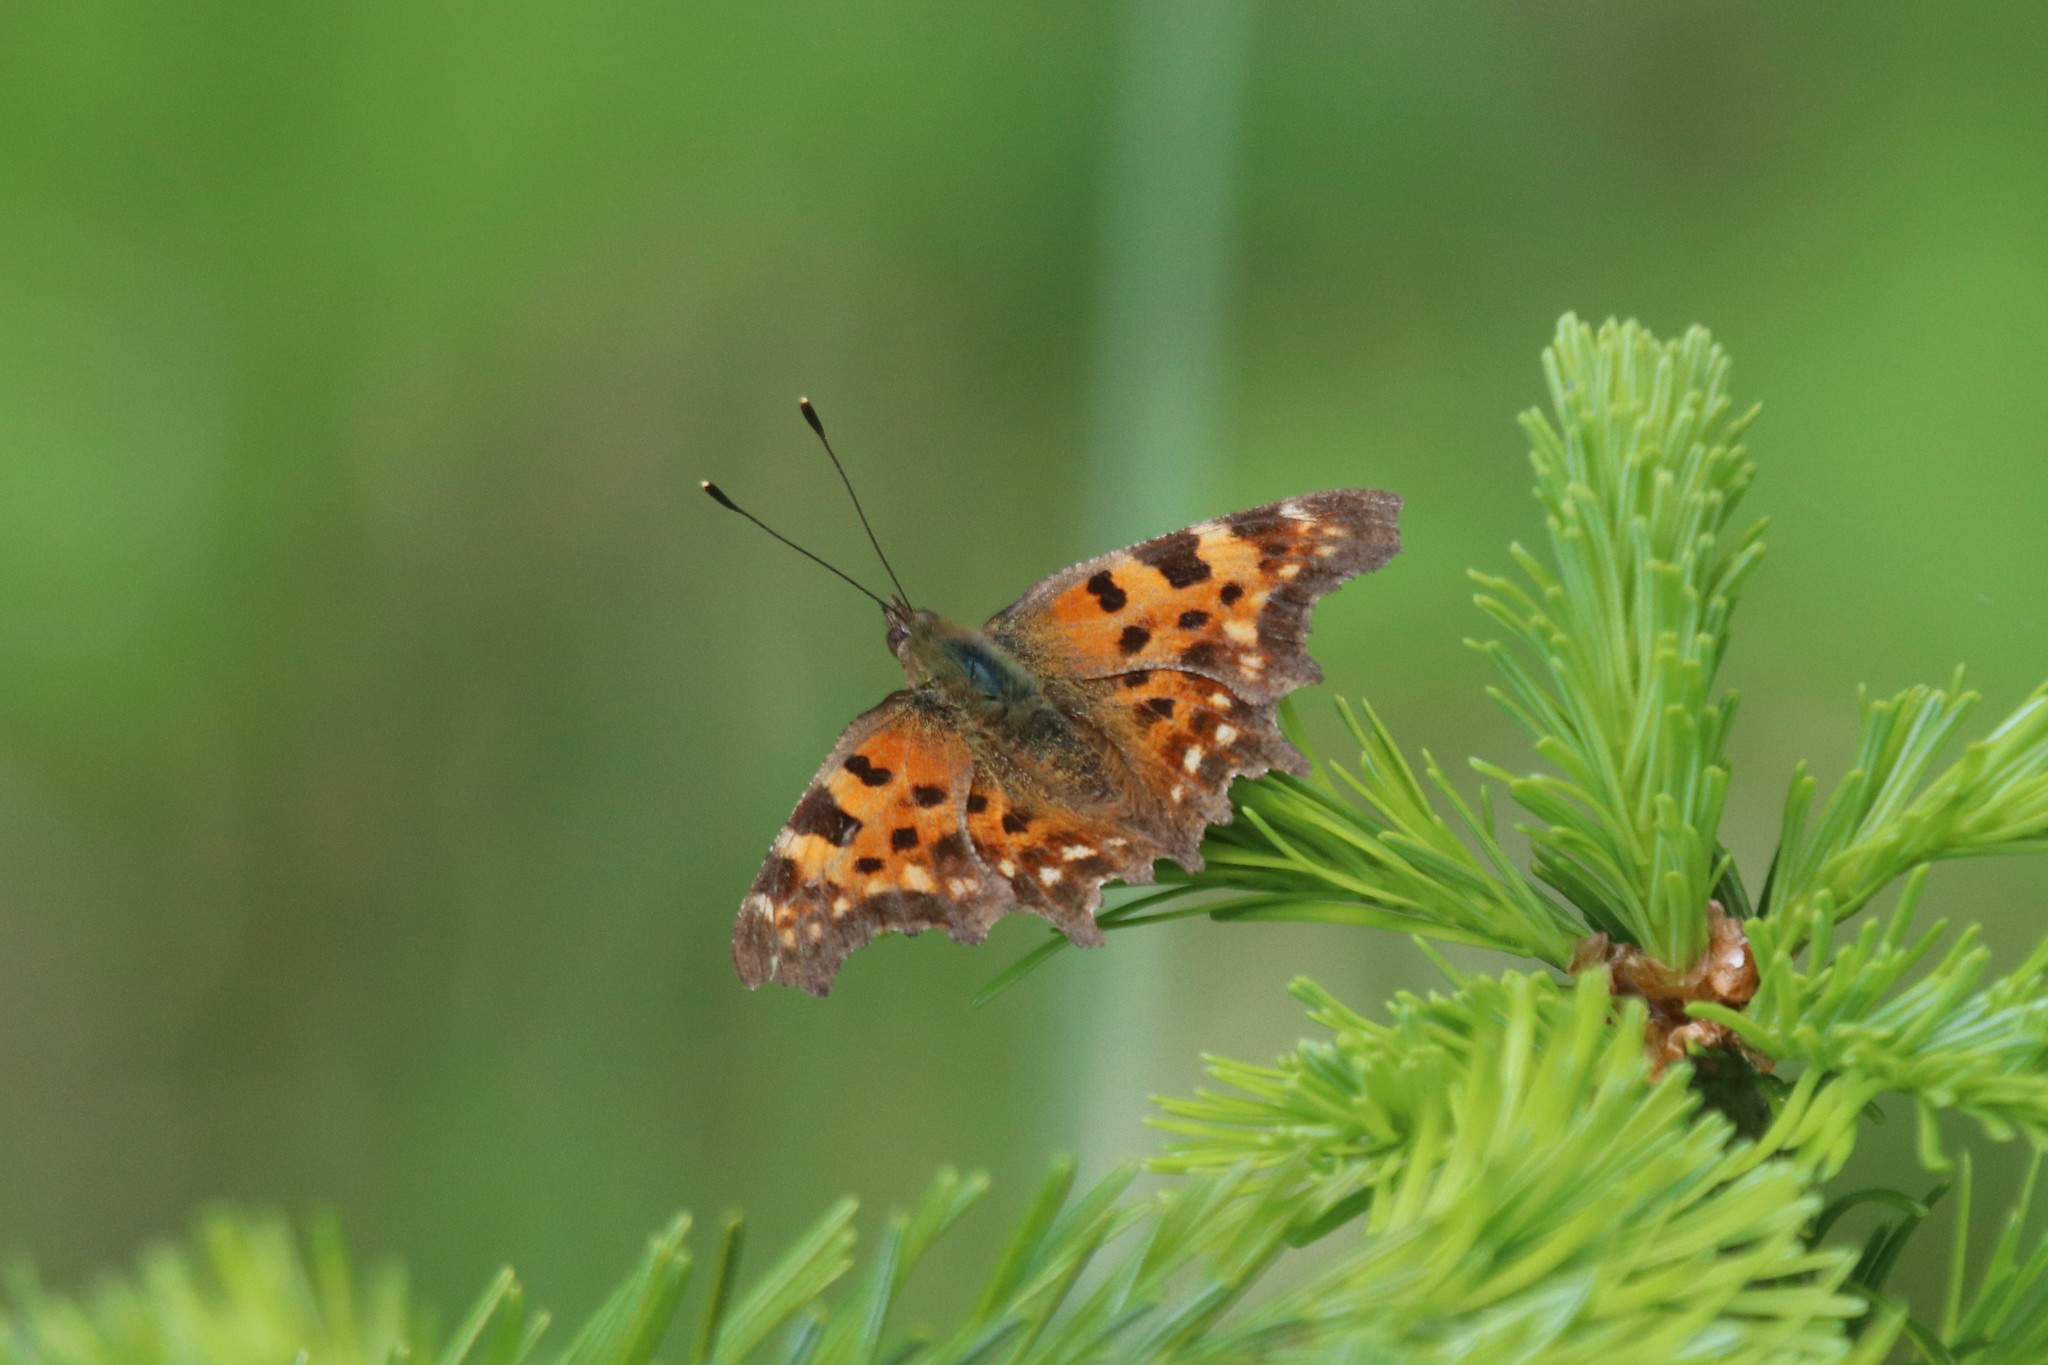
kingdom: Animalia
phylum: Arthropoda
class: Insecta
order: Lepidoptera
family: Nymphalidae
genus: Polygonia
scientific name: Polygonia c-album
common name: Comma
